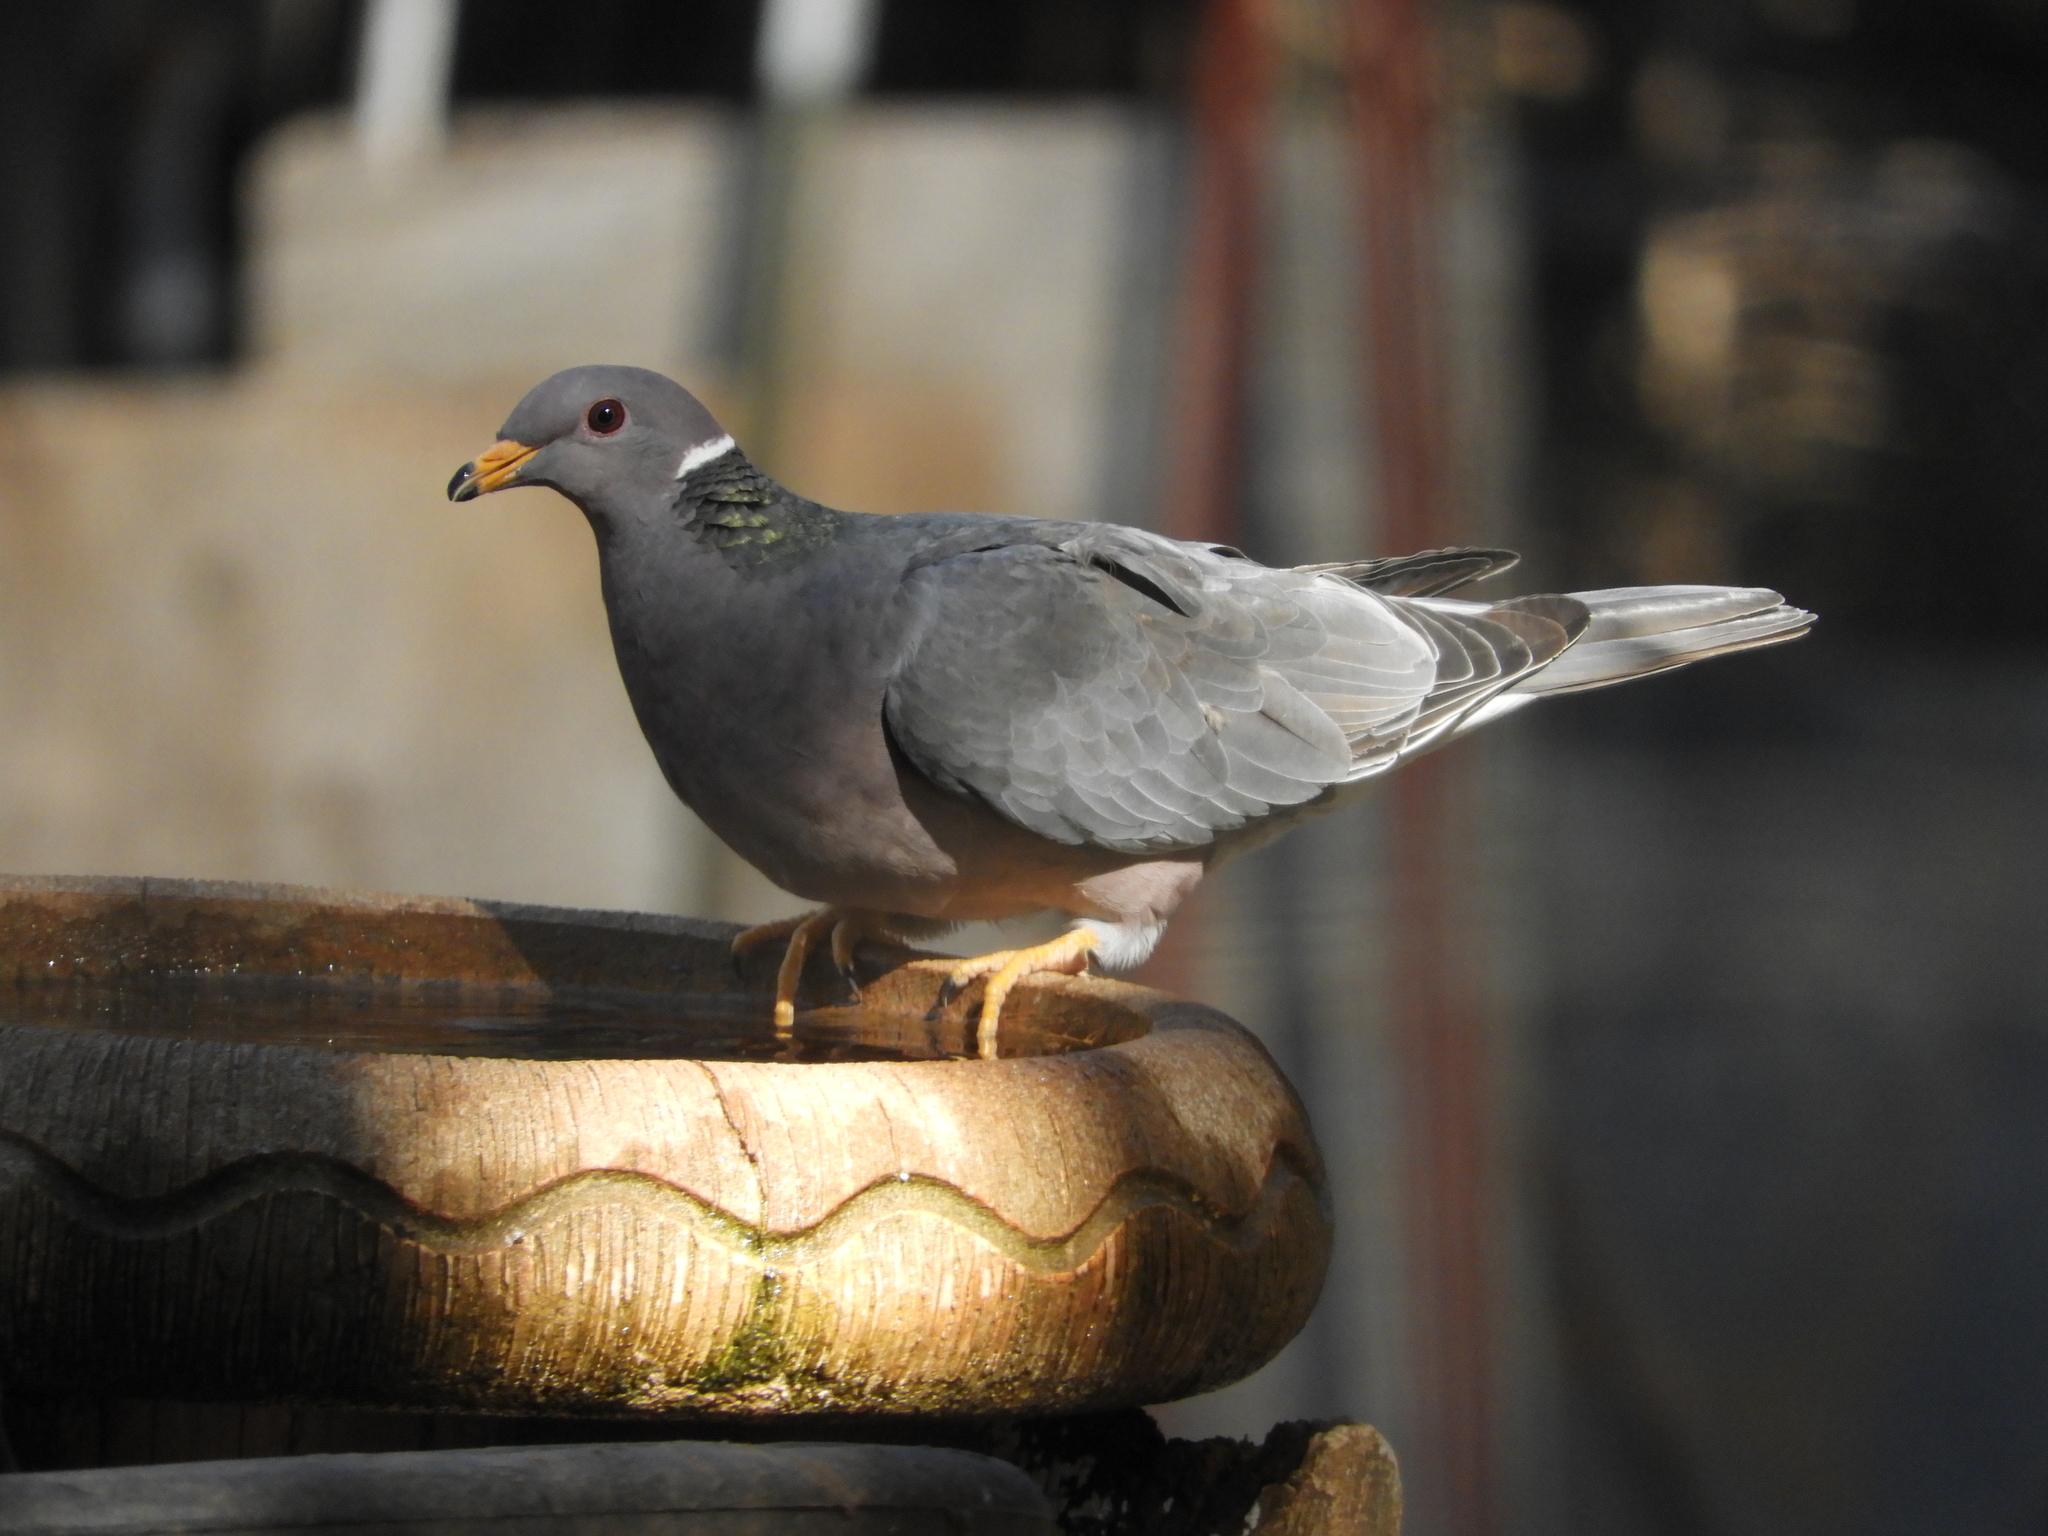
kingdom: Animalia
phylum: Chordata
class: Aves
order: Columbiformes
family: Columbidae
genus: Patagioenas
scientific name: Patagioenas fasciata
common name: Band-tailed pigeon
